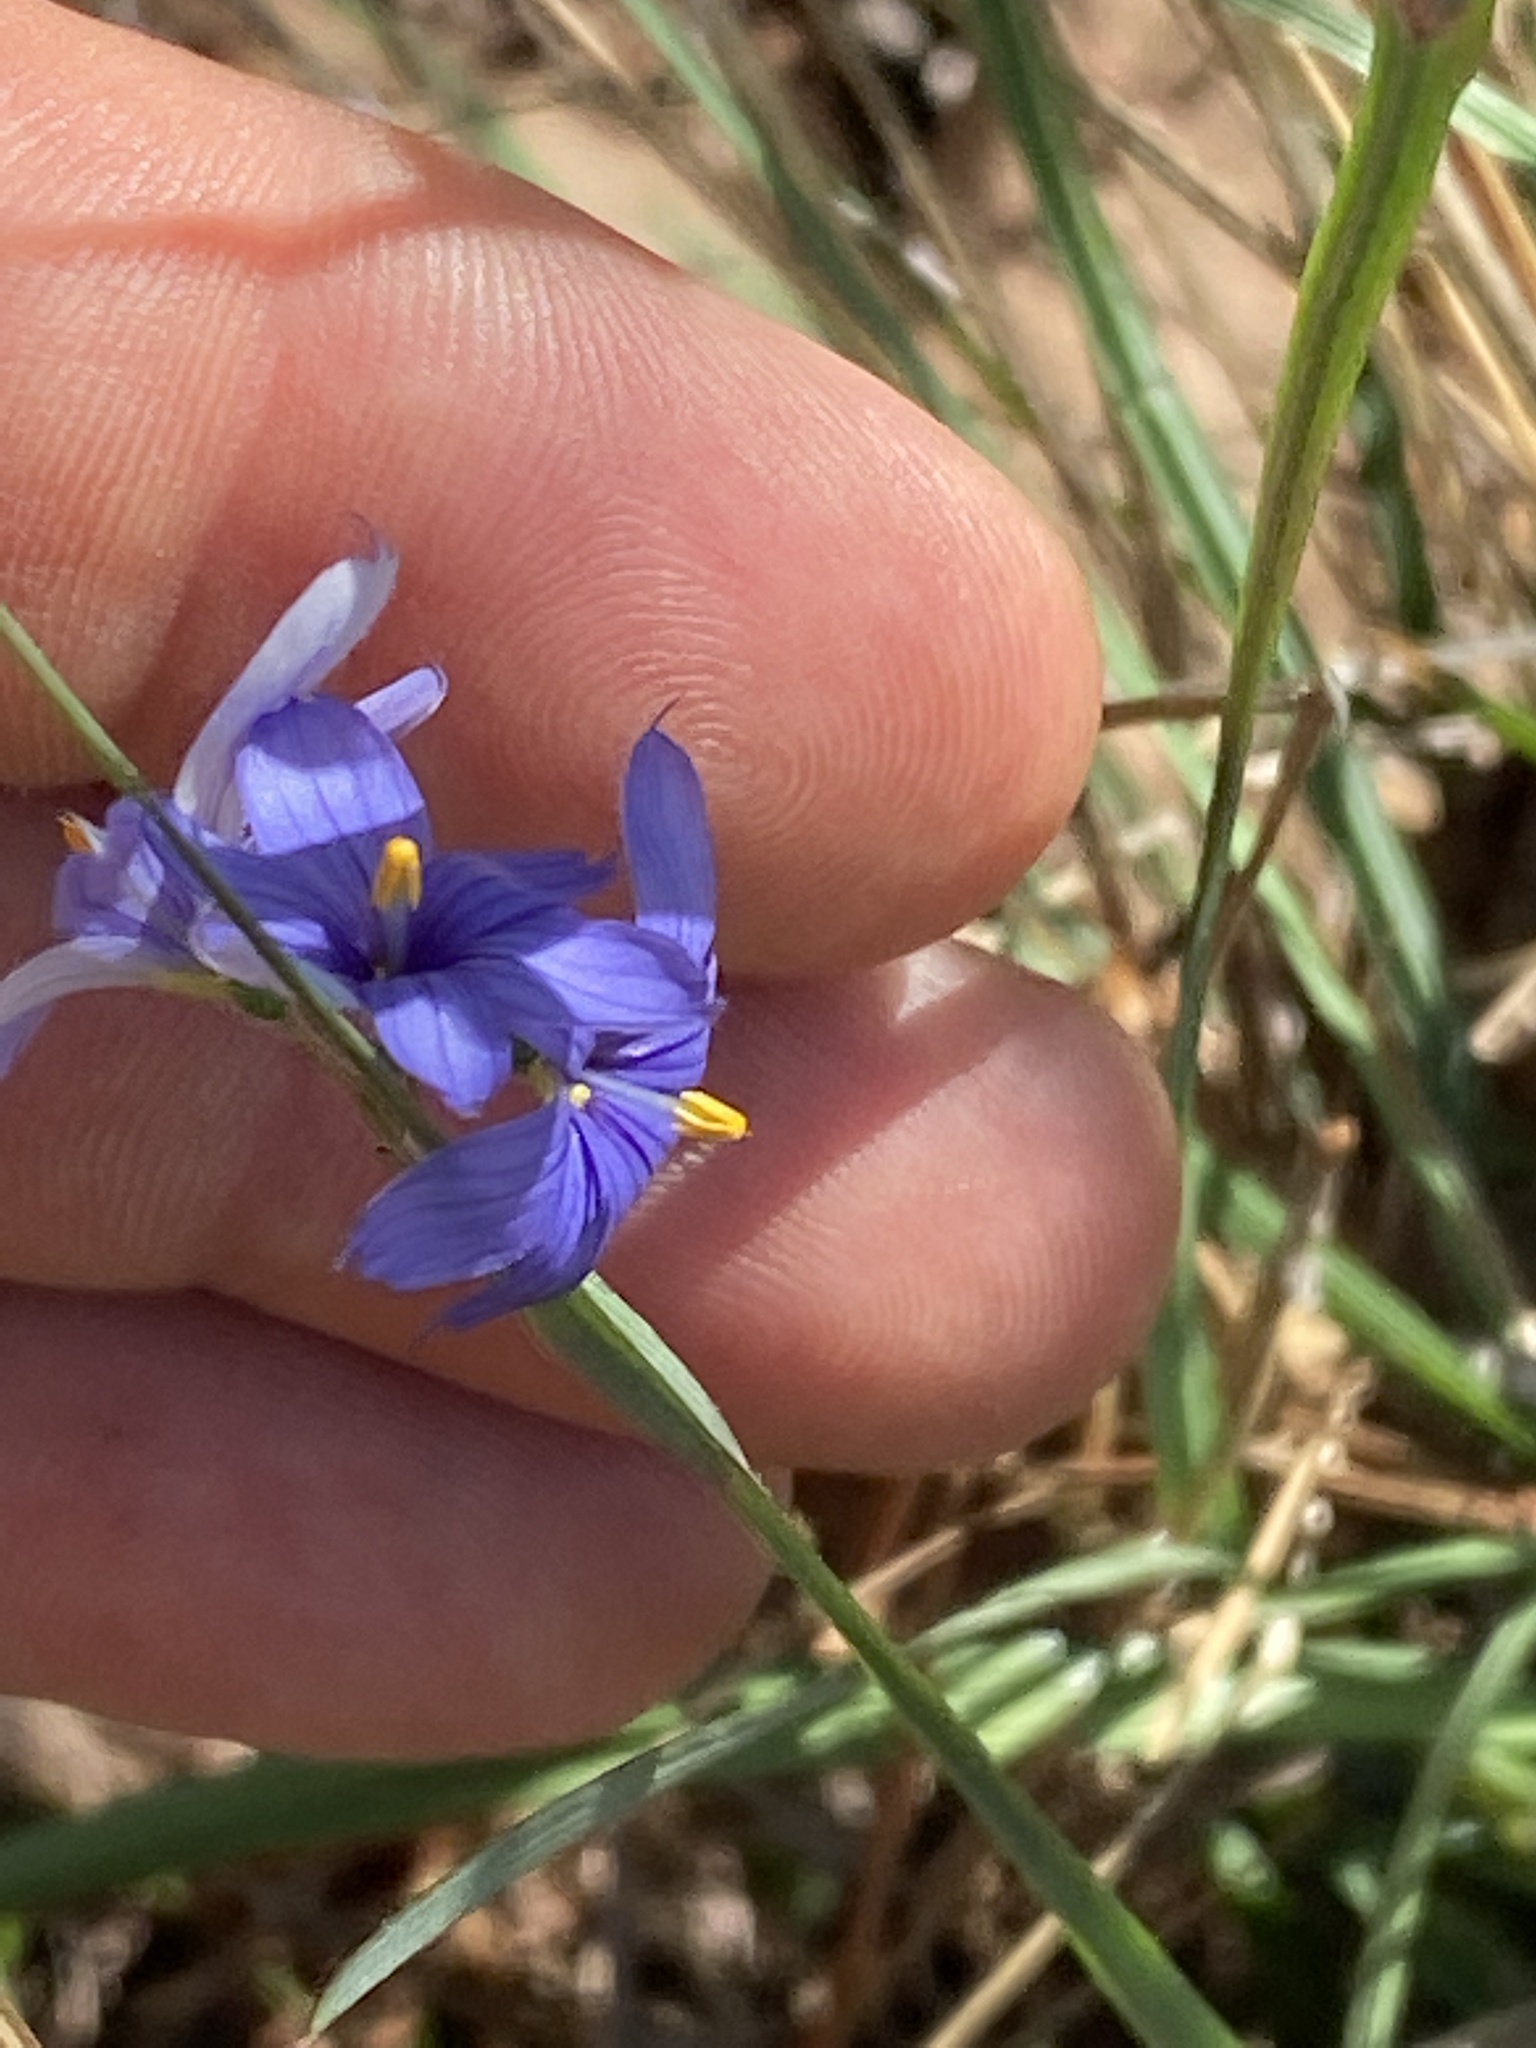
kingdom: Plantae
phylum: Tracheophyta
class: Liliopsida
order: Asparagales
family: Iridaceae
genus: Sisyrinchium
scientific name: Sisyrinchium mucronatum
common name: Eastern blue-eyed-grass
